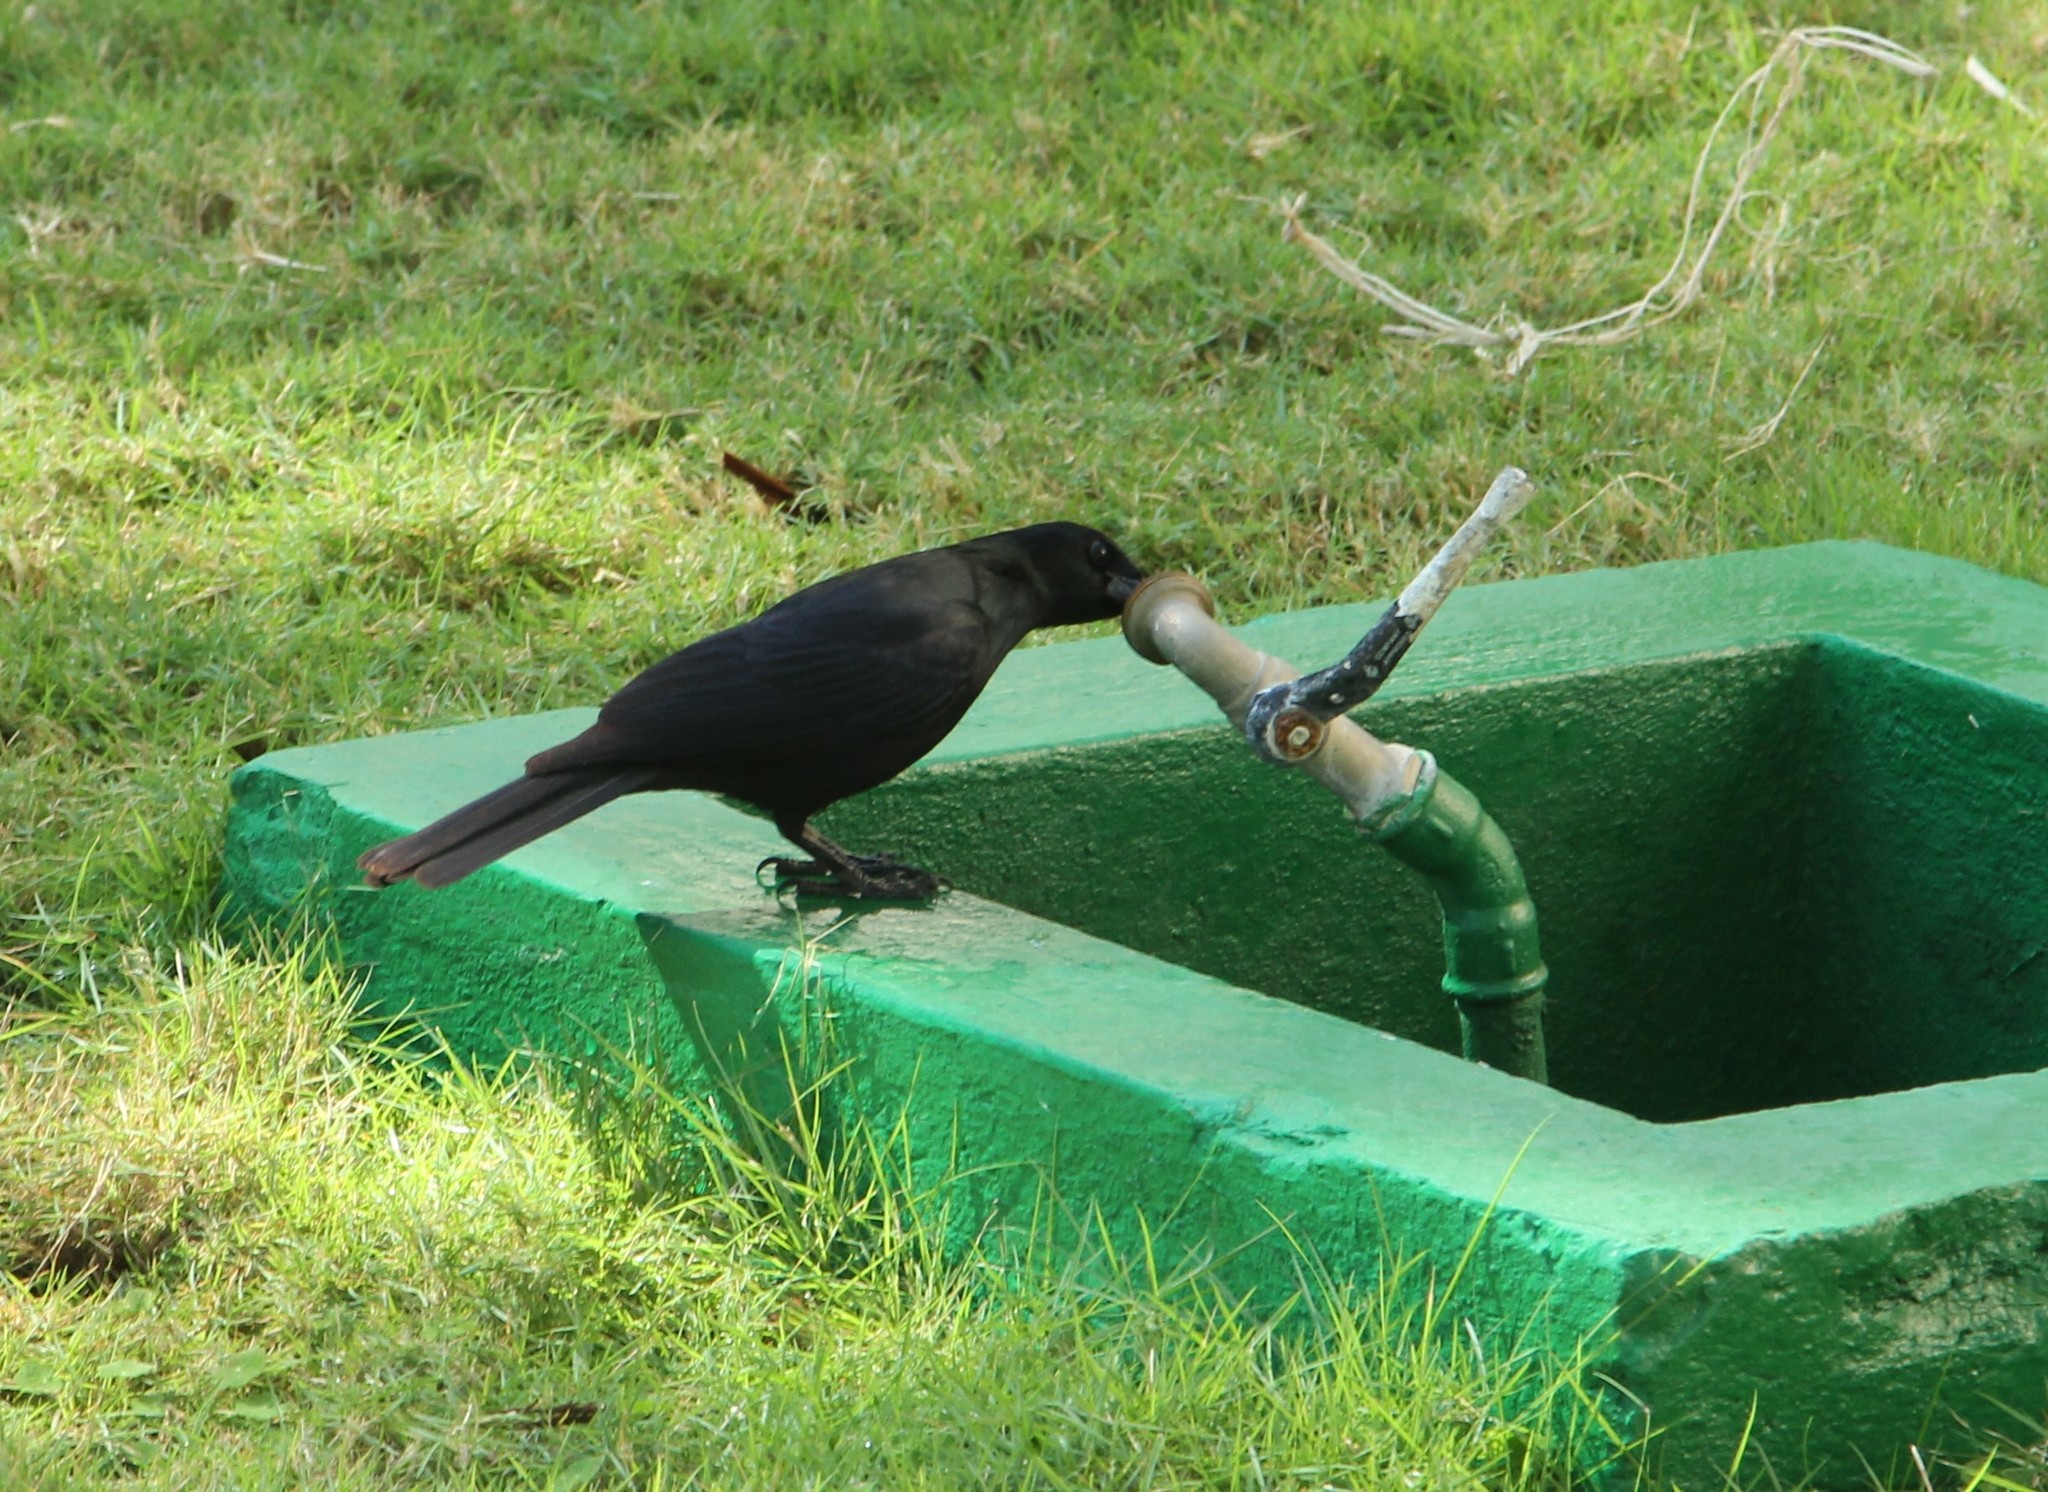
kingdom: Animalia
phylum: Chordata
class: Aves
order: Passeriformes
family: Icteridae
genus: Dives
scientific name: Dives atroviolaceus
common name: Cuban blackbird
